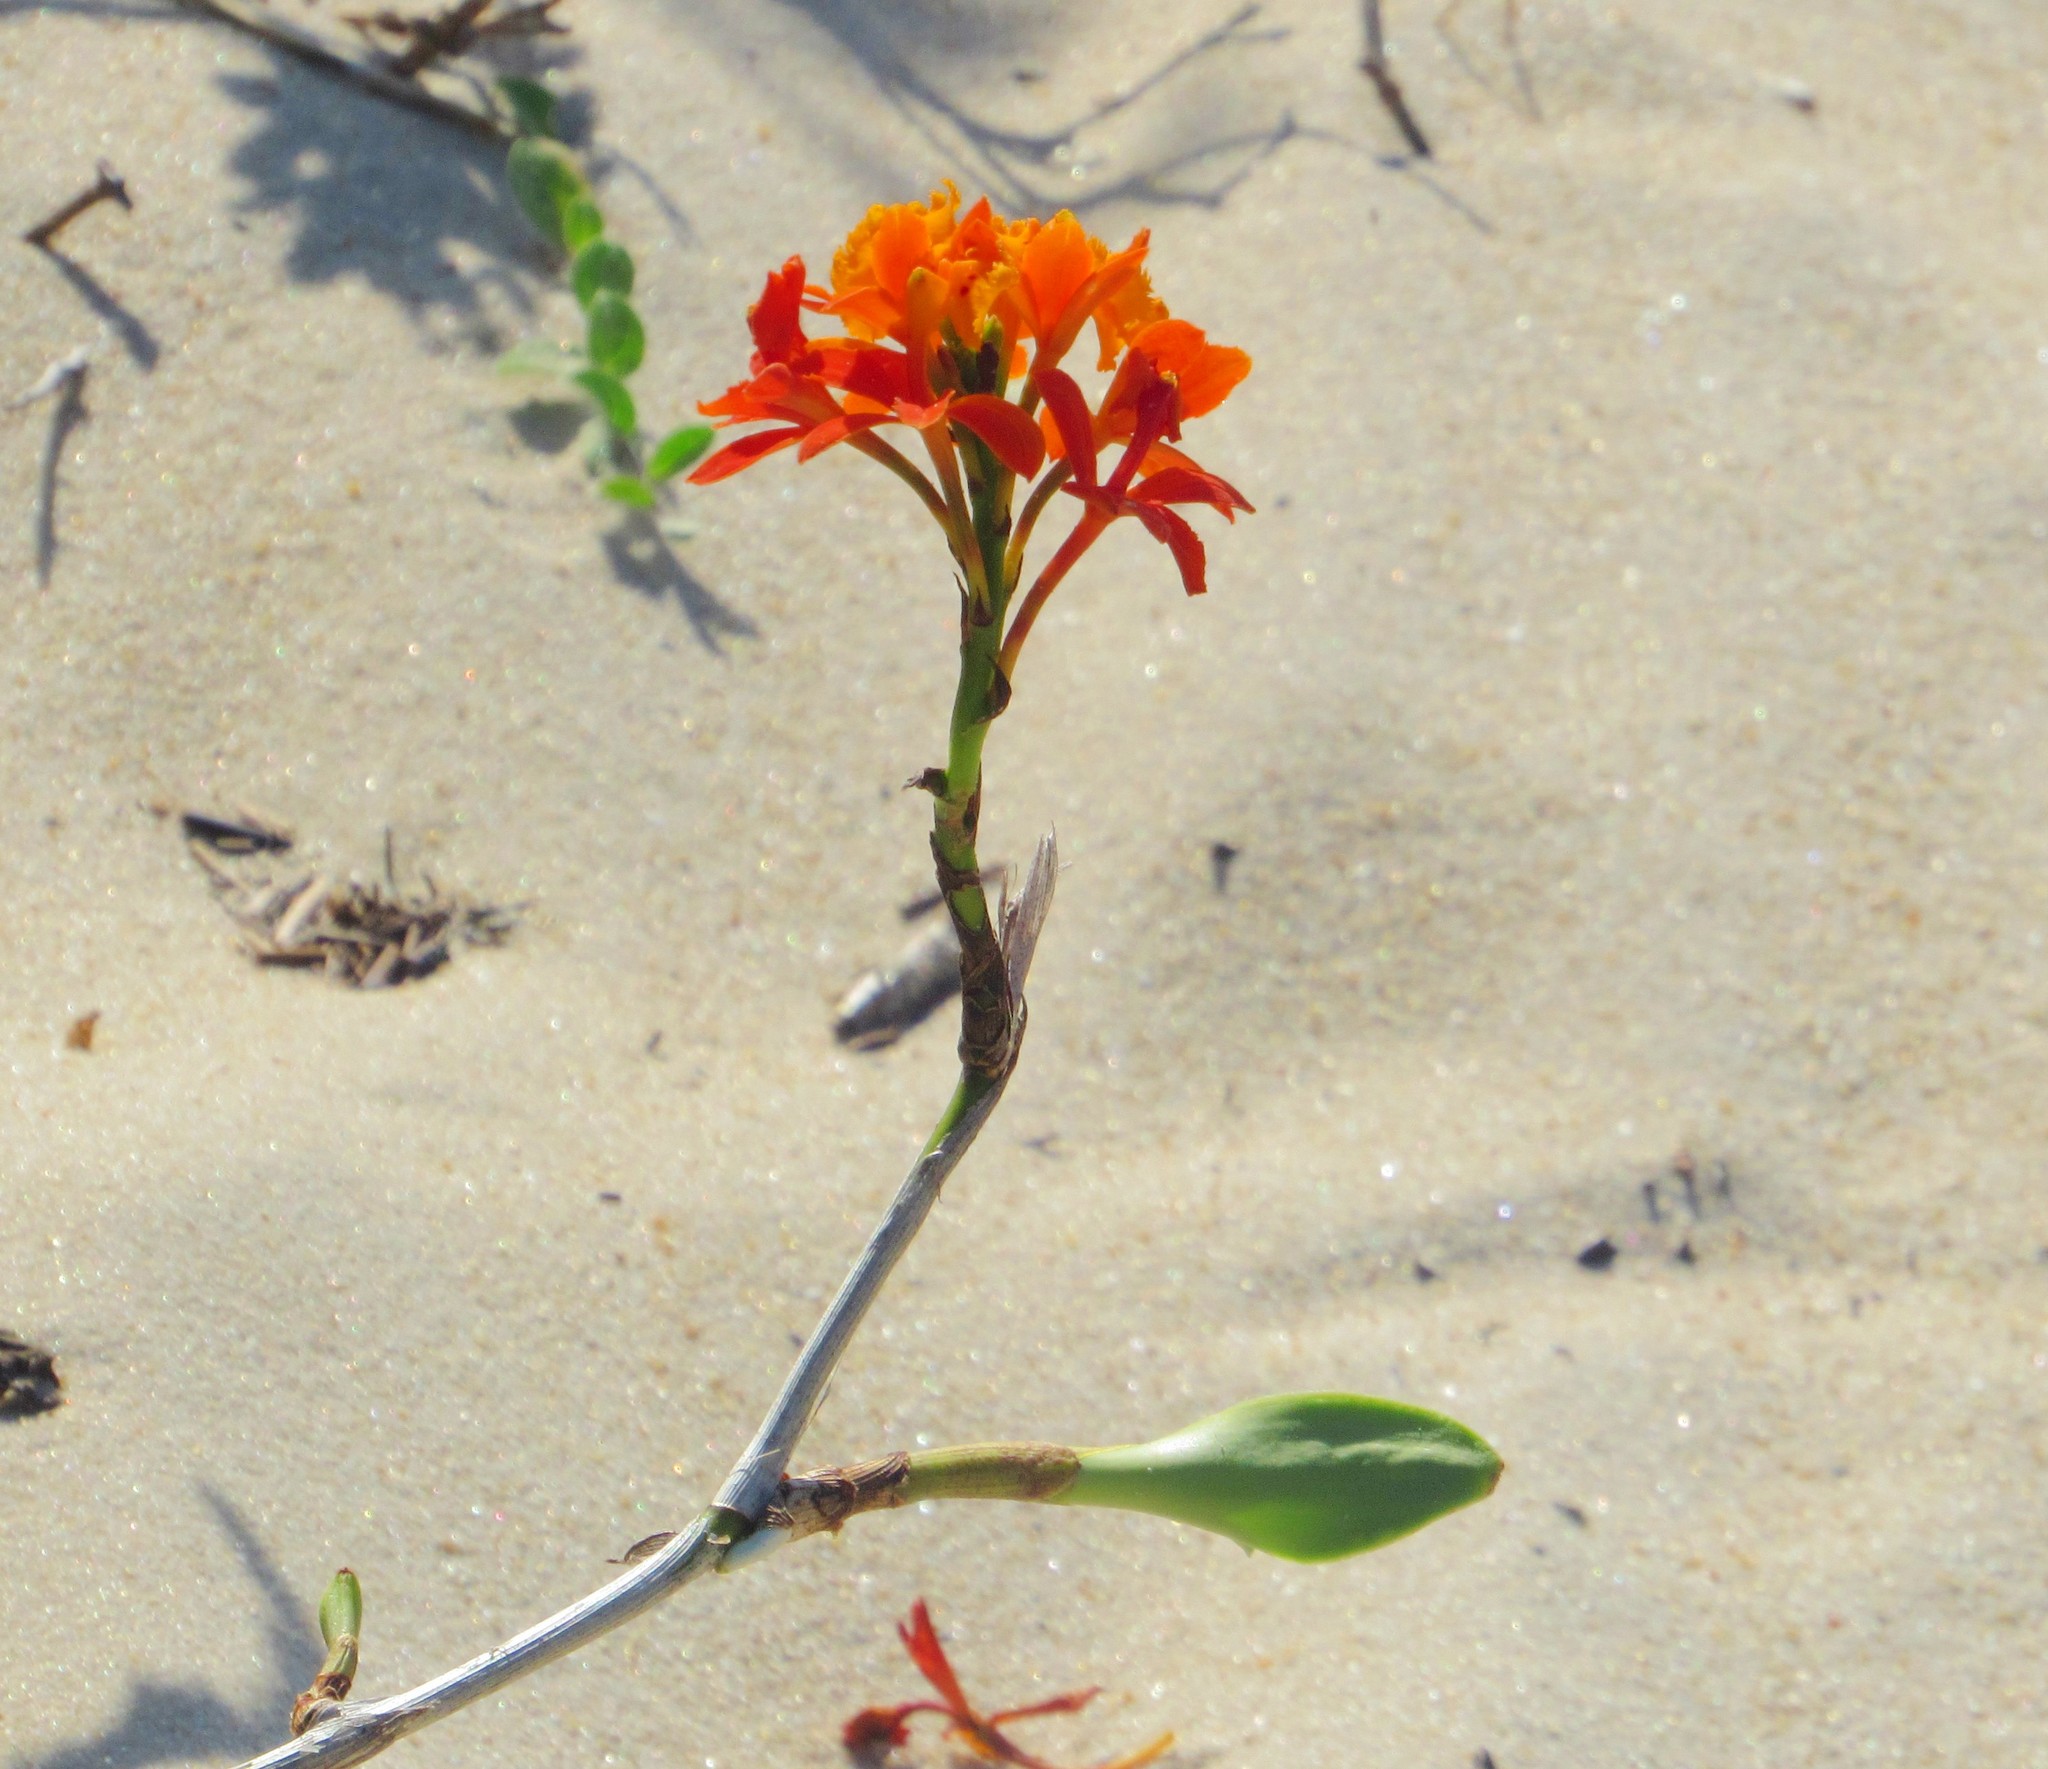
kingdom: Plantae
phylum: Tracheophyta
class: Liliopsida
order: Asparagales
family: Orchidaceae
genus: Epidendrum
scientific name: Epidendrum fulgens
